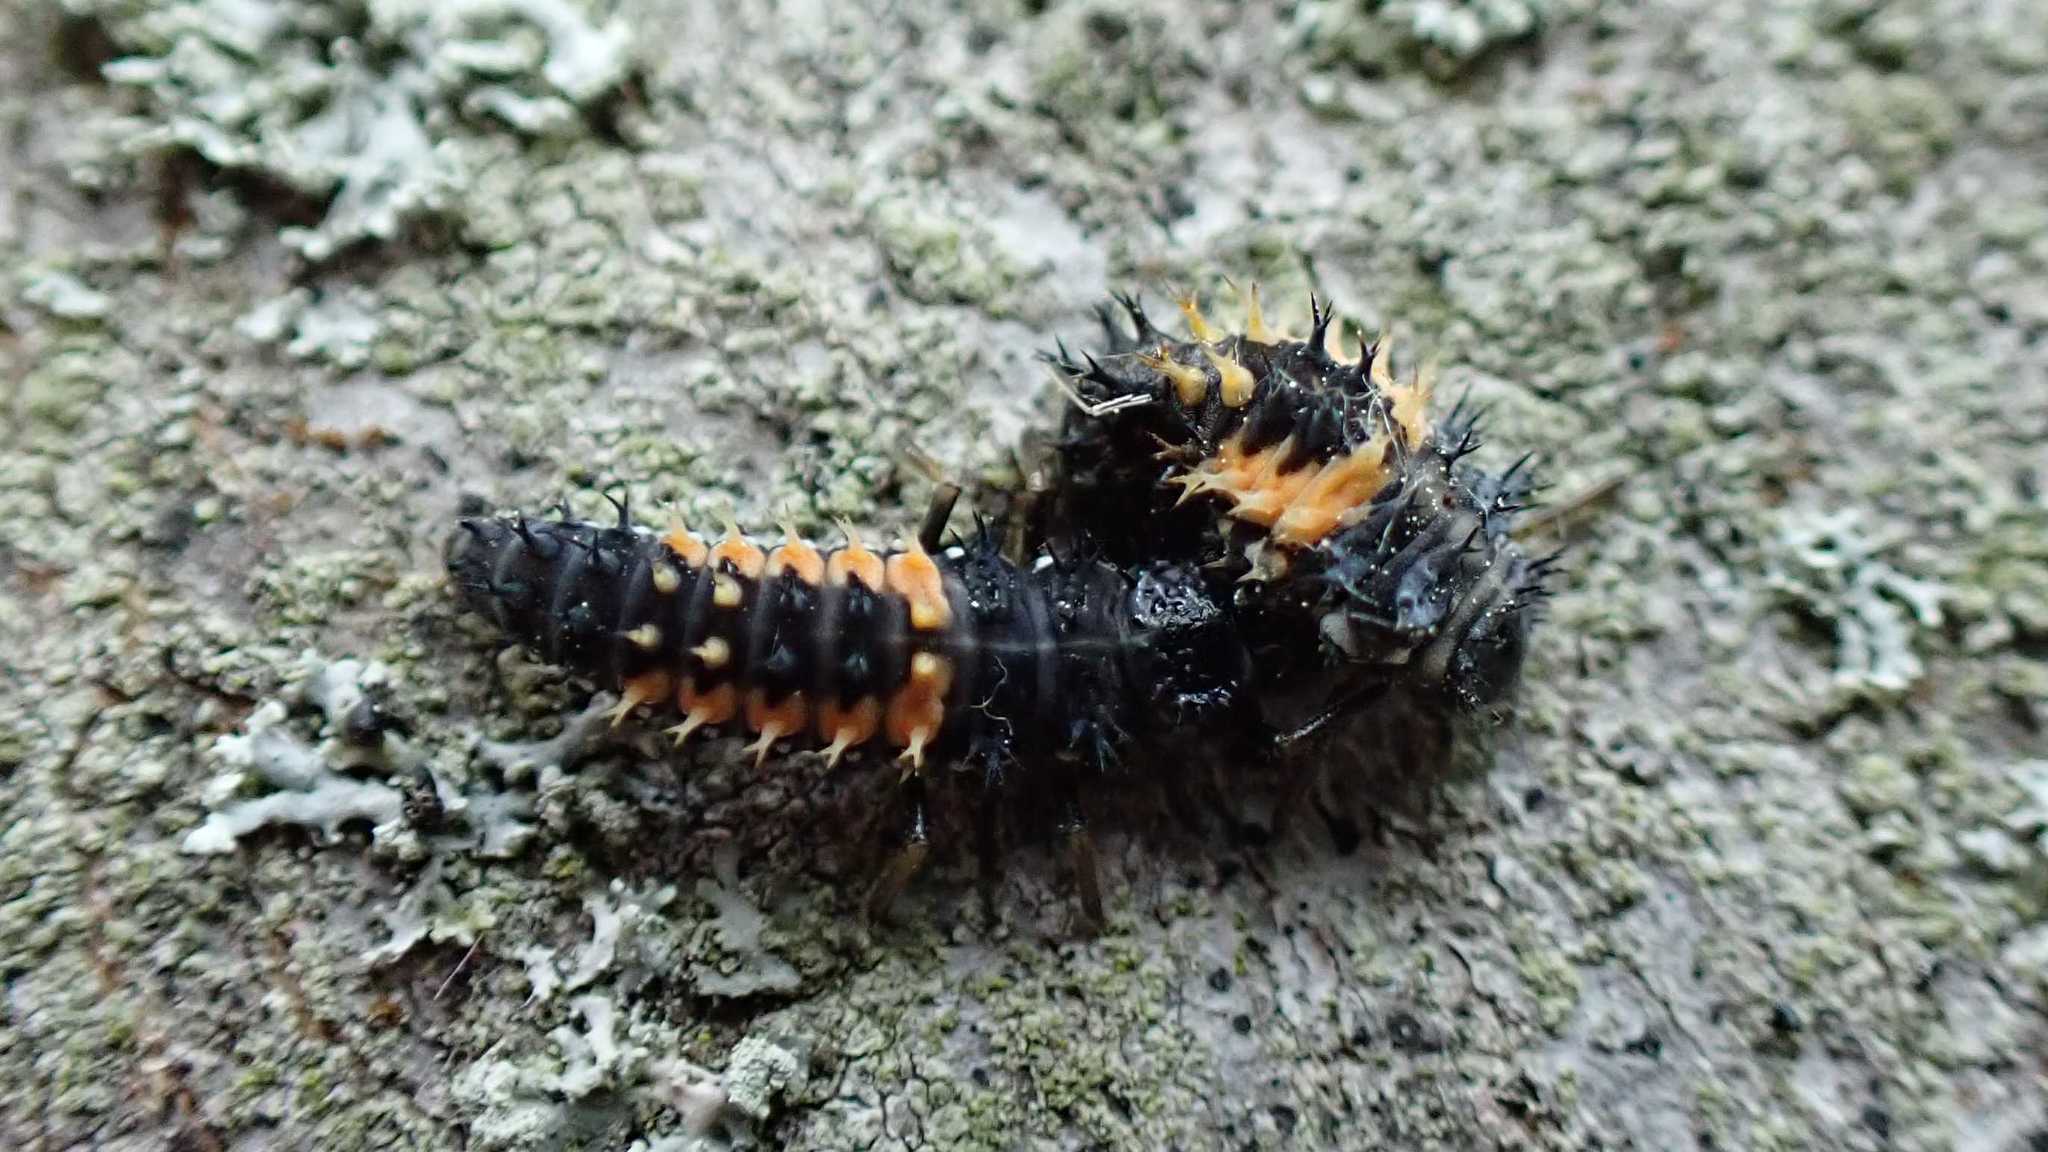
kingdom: Animalia
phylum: Arthropoda
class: Insecta
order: Coleoptera
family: Coccinellidae
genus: Harmonia
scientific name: Harmonia axyridis
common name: Harlequin ladybird
